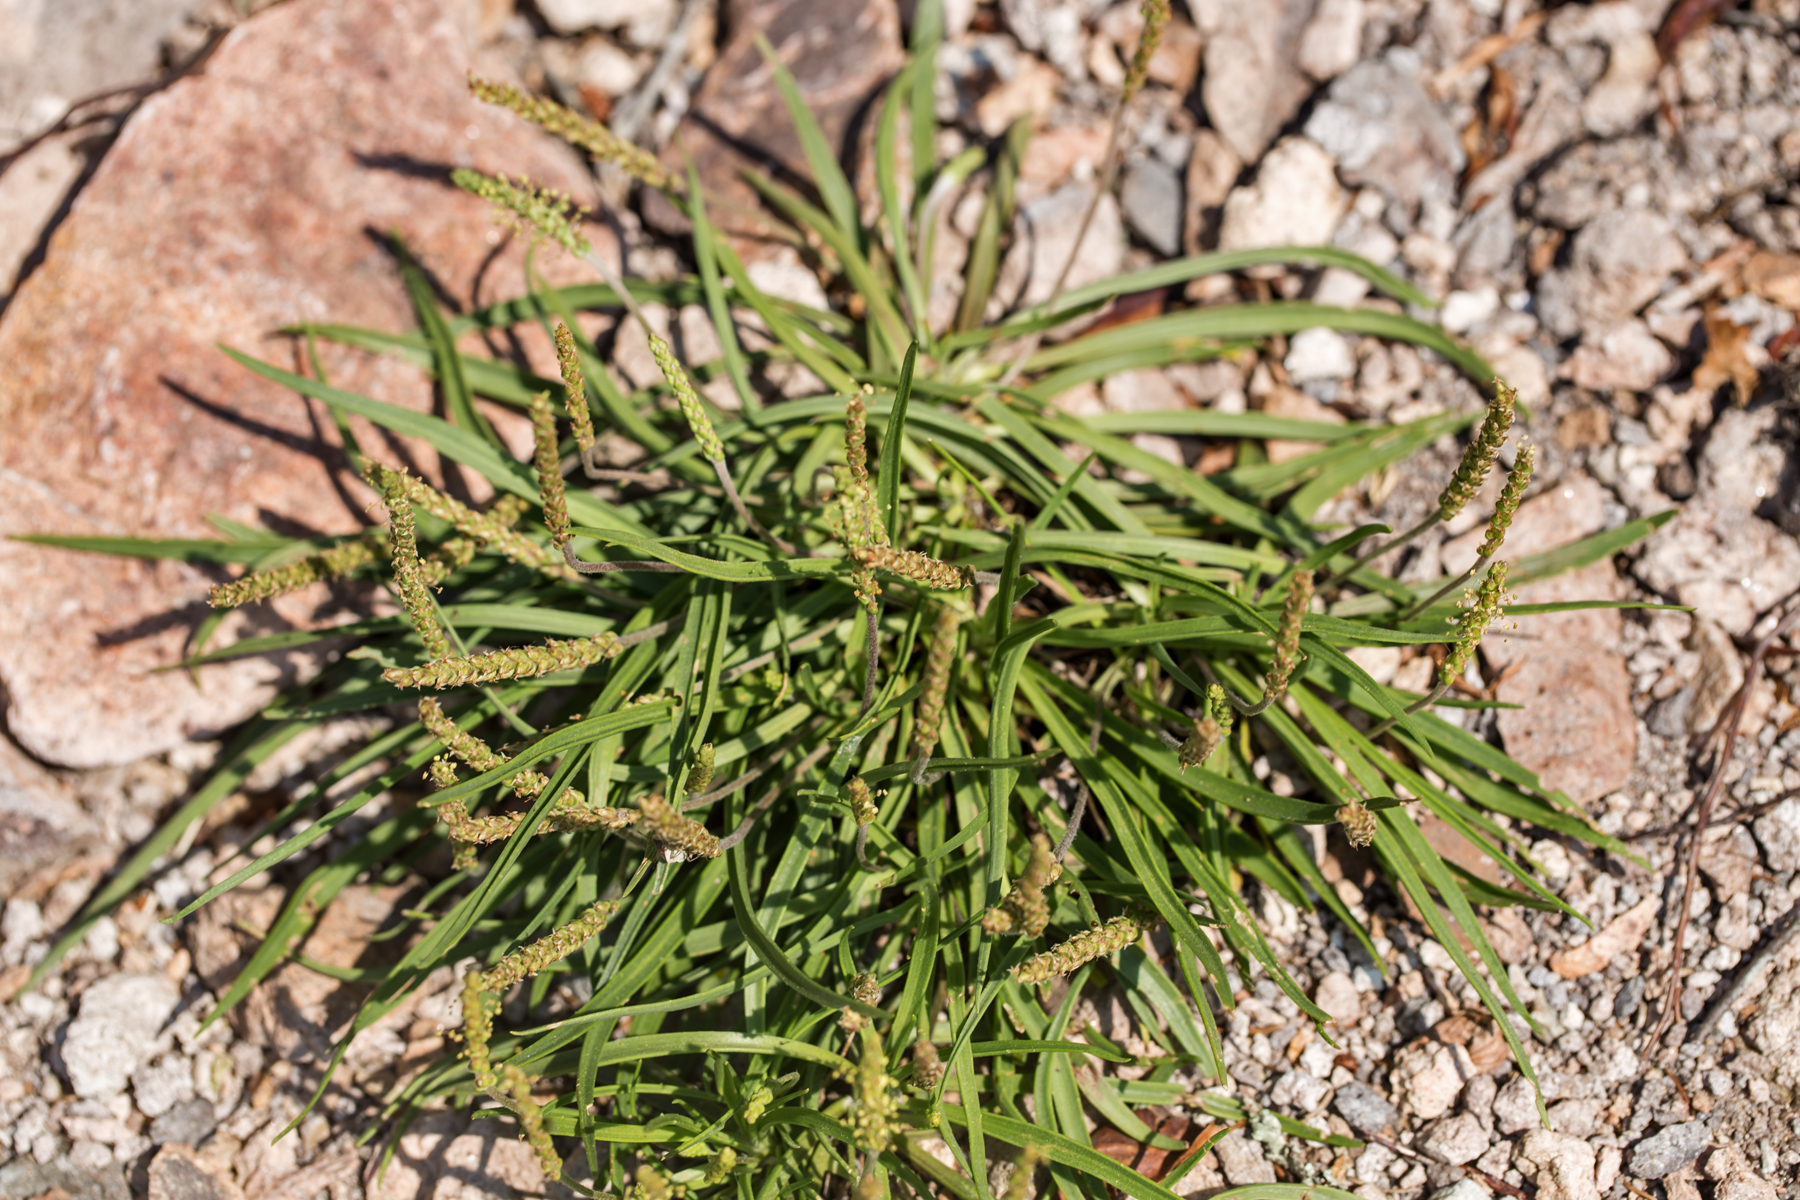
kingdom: Plantae
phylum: Tracheophyta
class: Magnoliopsida
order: Lamiales
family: Plantaginaceae
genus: Plantago
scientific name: Plantago maritima
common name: Sea plantain
